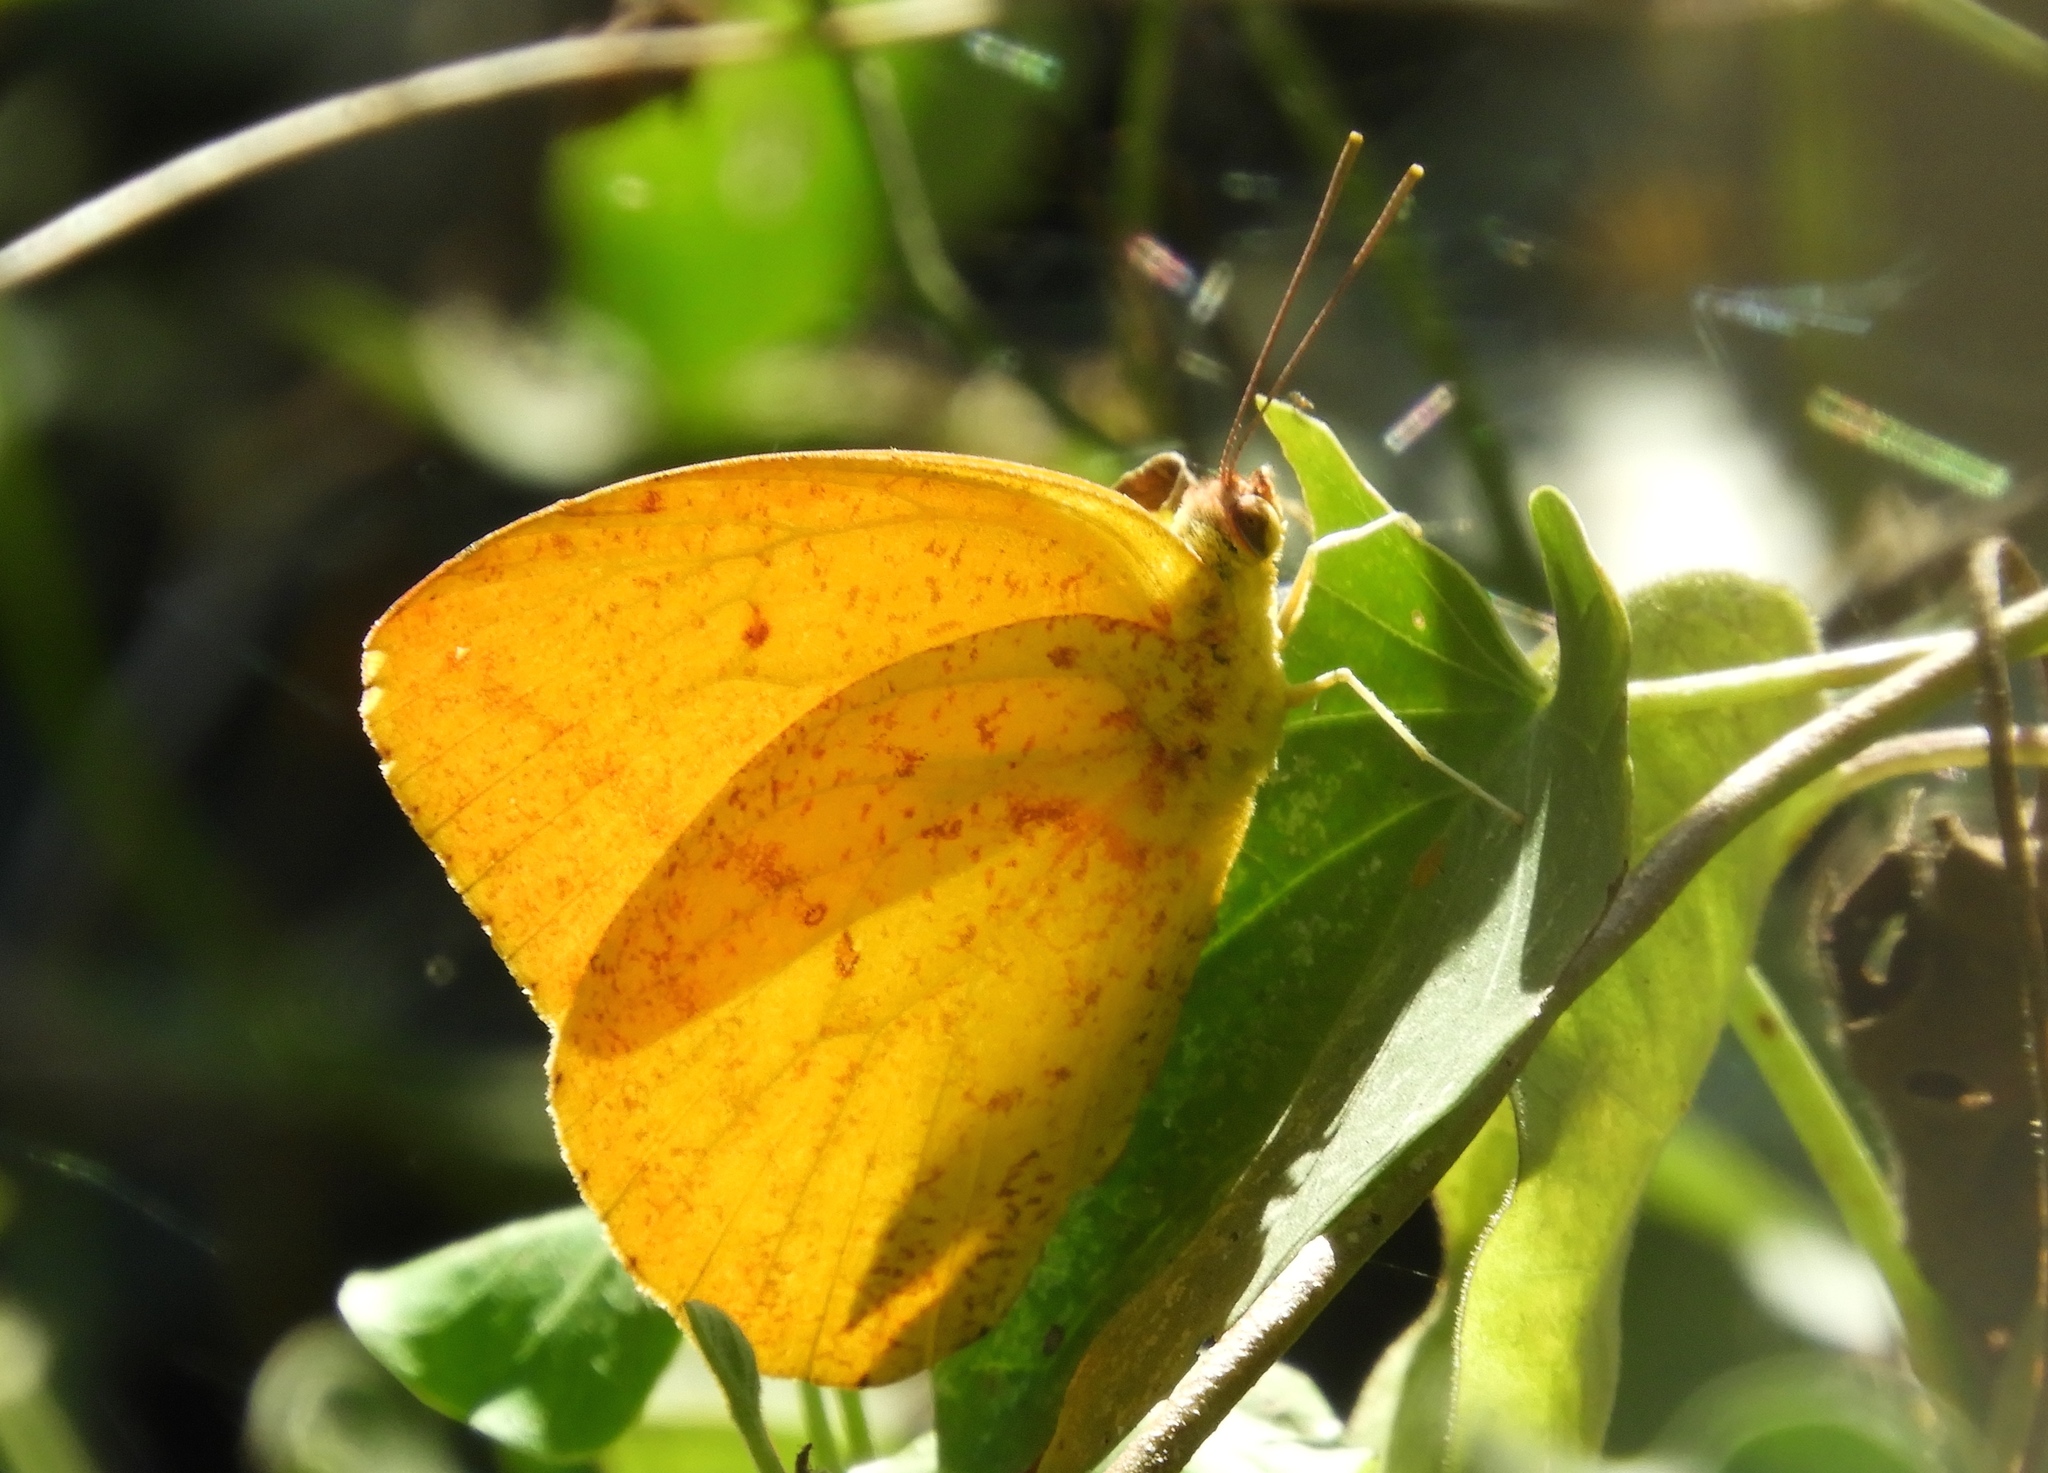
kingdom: Animalia
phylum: Arthropoda
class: Insecta
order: Lepidoptera
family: Pieridae
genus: Phoebis
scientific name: Phoebis agarithe
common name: Large orange sulphur
